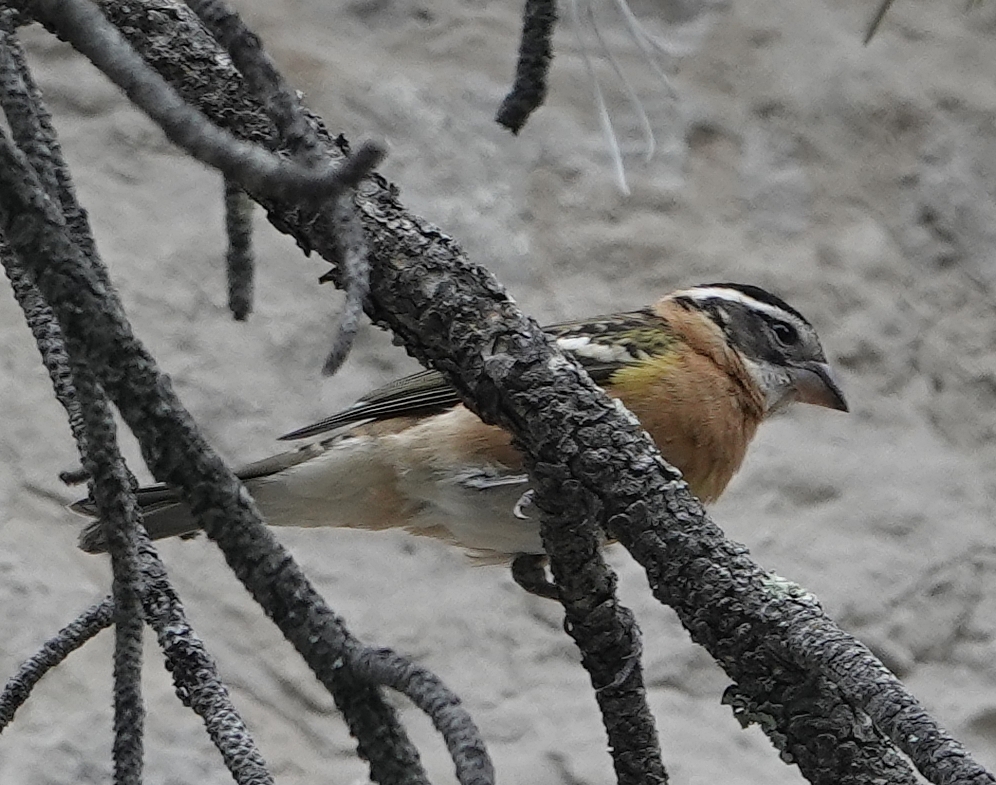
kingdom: Animalia
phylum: Chordata
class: Aves
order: Passeriformes
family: Cardinalidae
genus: Pheucticus
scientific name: Pheucticus melanocephalus
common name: Black-headed grosbeak
